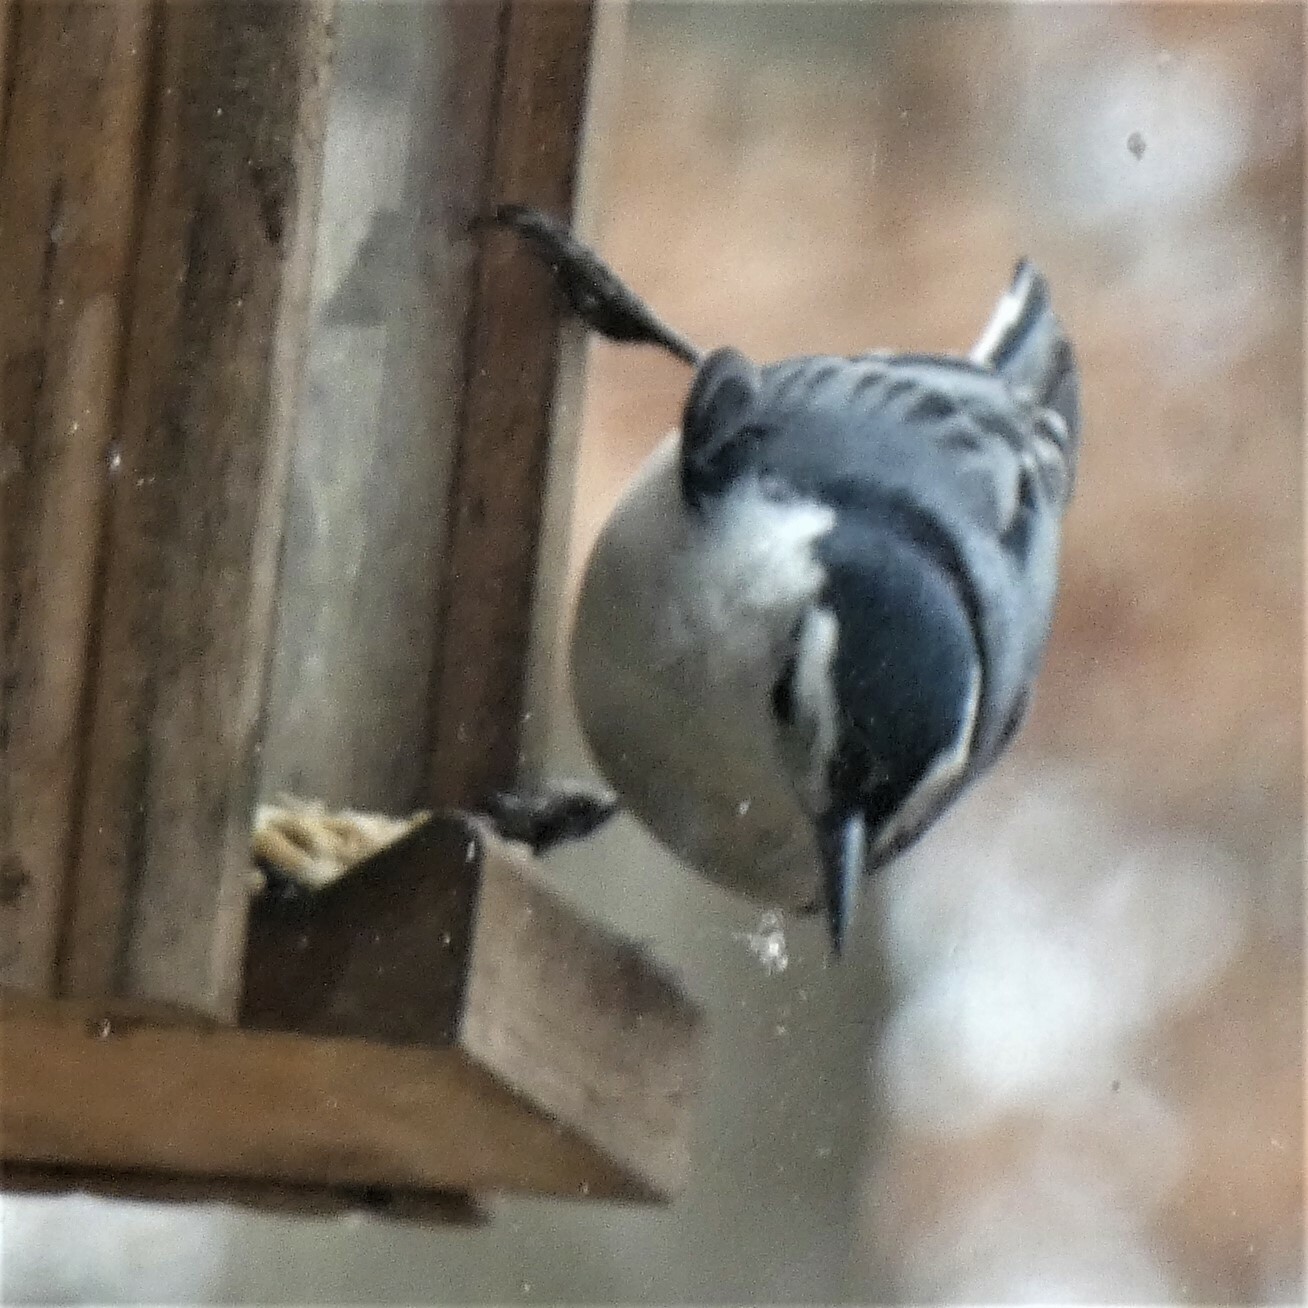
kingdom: Animalia
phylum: Chordata
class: Aves
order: Passeriformes
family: Sittidae
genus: Sitta
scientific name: Sitta carolinensis
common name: White-breasted nuthatch
